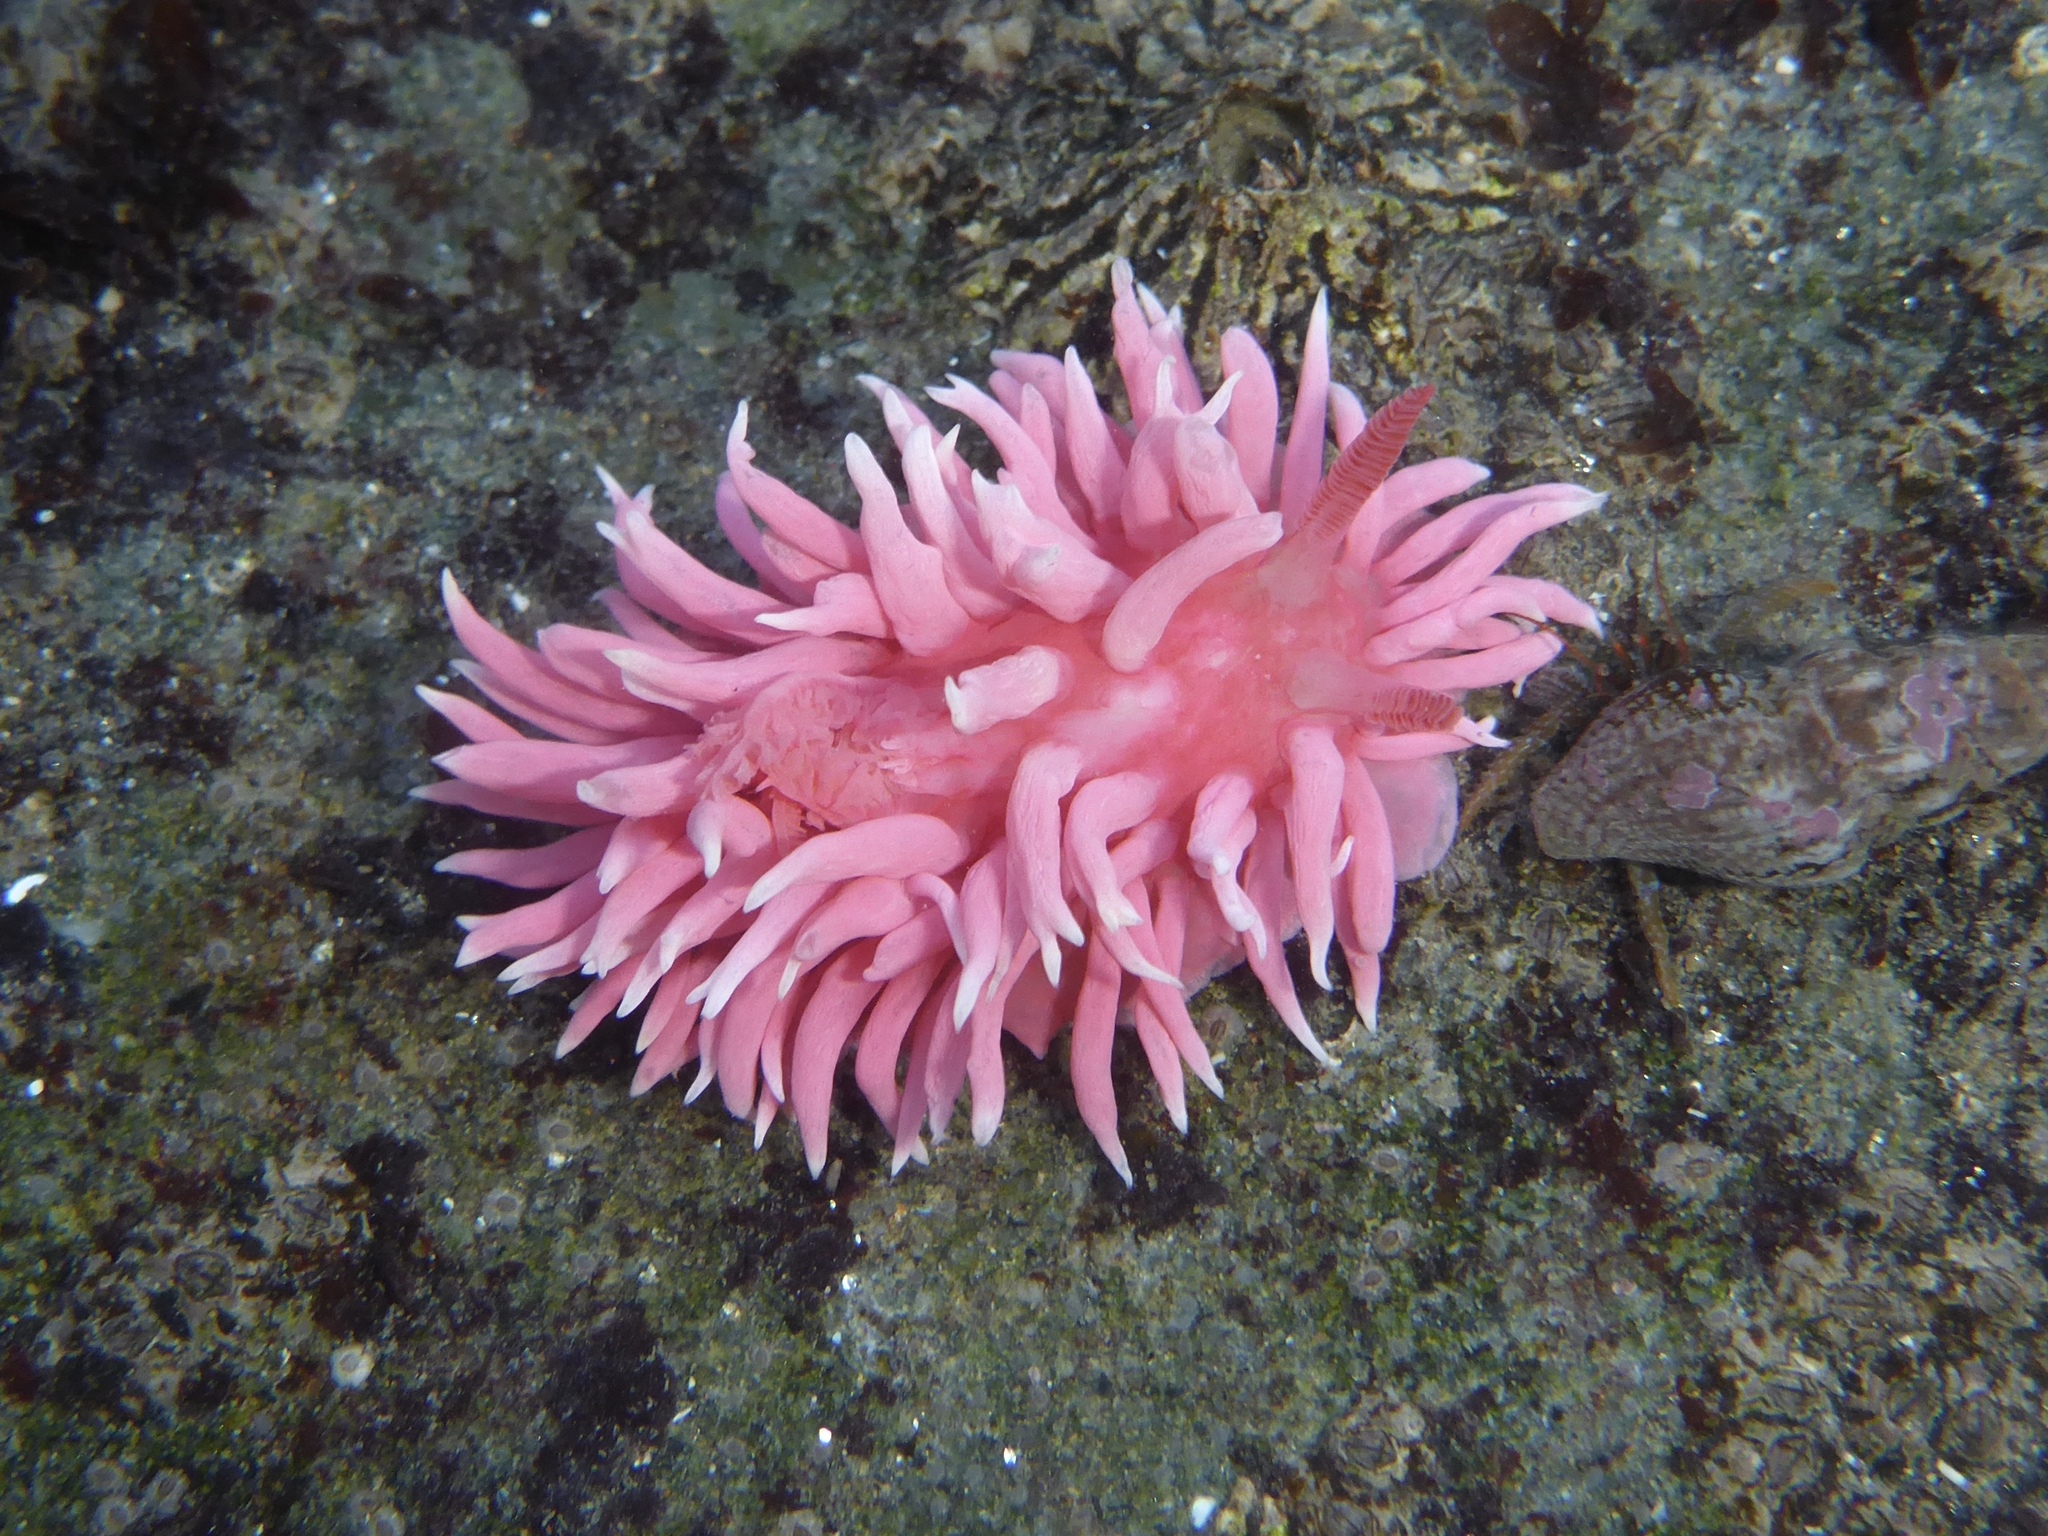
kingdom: Animalia
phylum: Mollusca
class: Gastropoda
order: Nudibranchia
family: Goniodorididae
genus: Okenia
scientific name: Okenia
